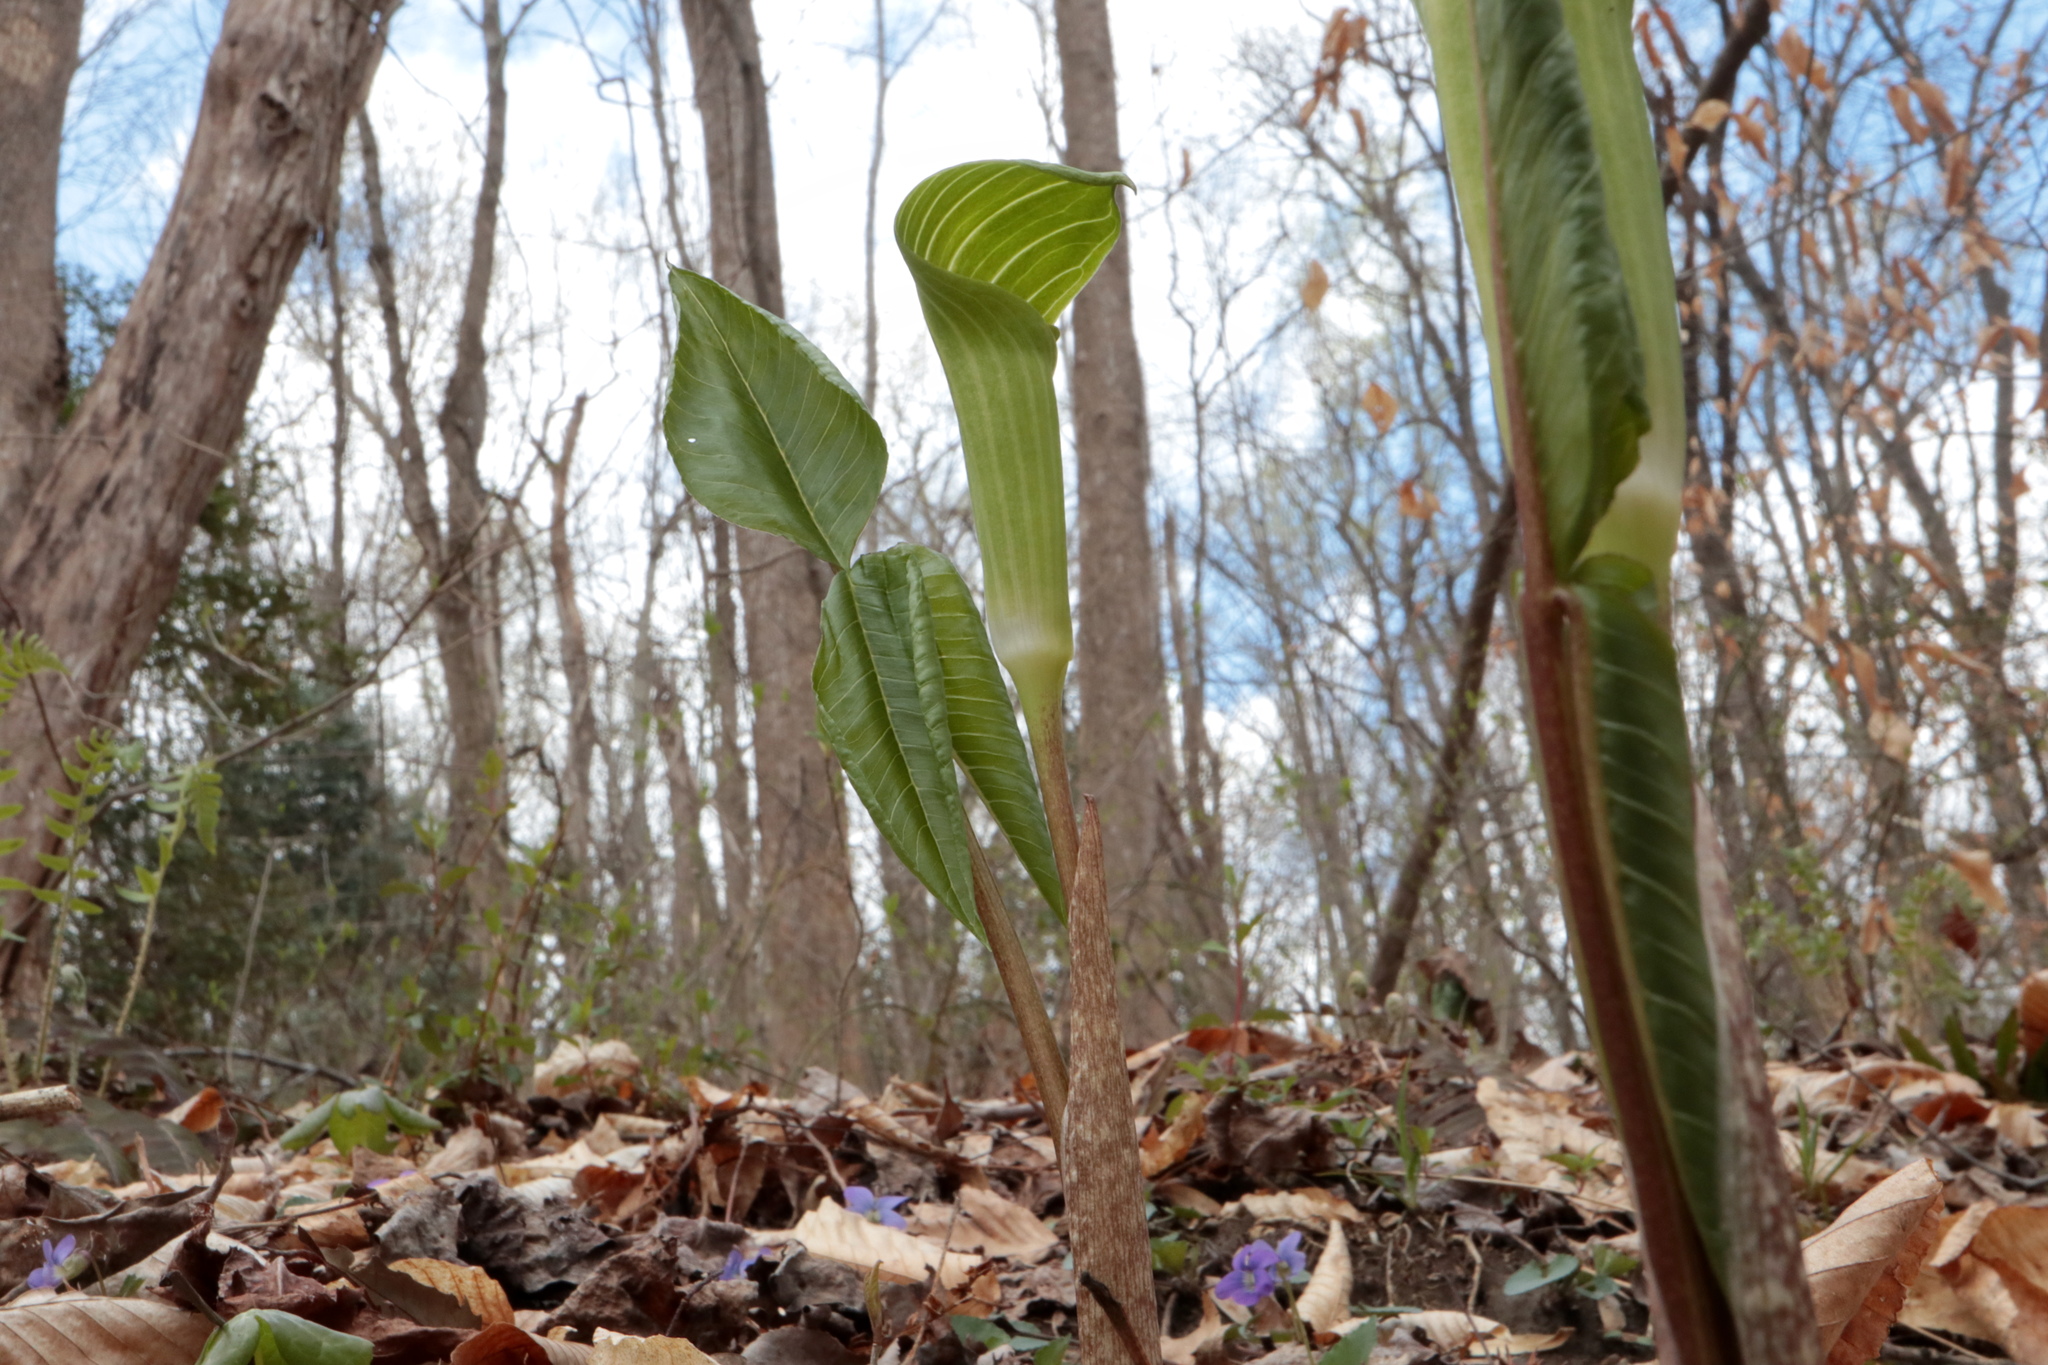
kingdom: Plantae
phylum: Tracheophyta
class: Liliopsida
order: Alismatales
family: Araceae
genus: Arisaema
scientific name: Arisaema triphyllum
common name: Jack-in-the-pulpit
